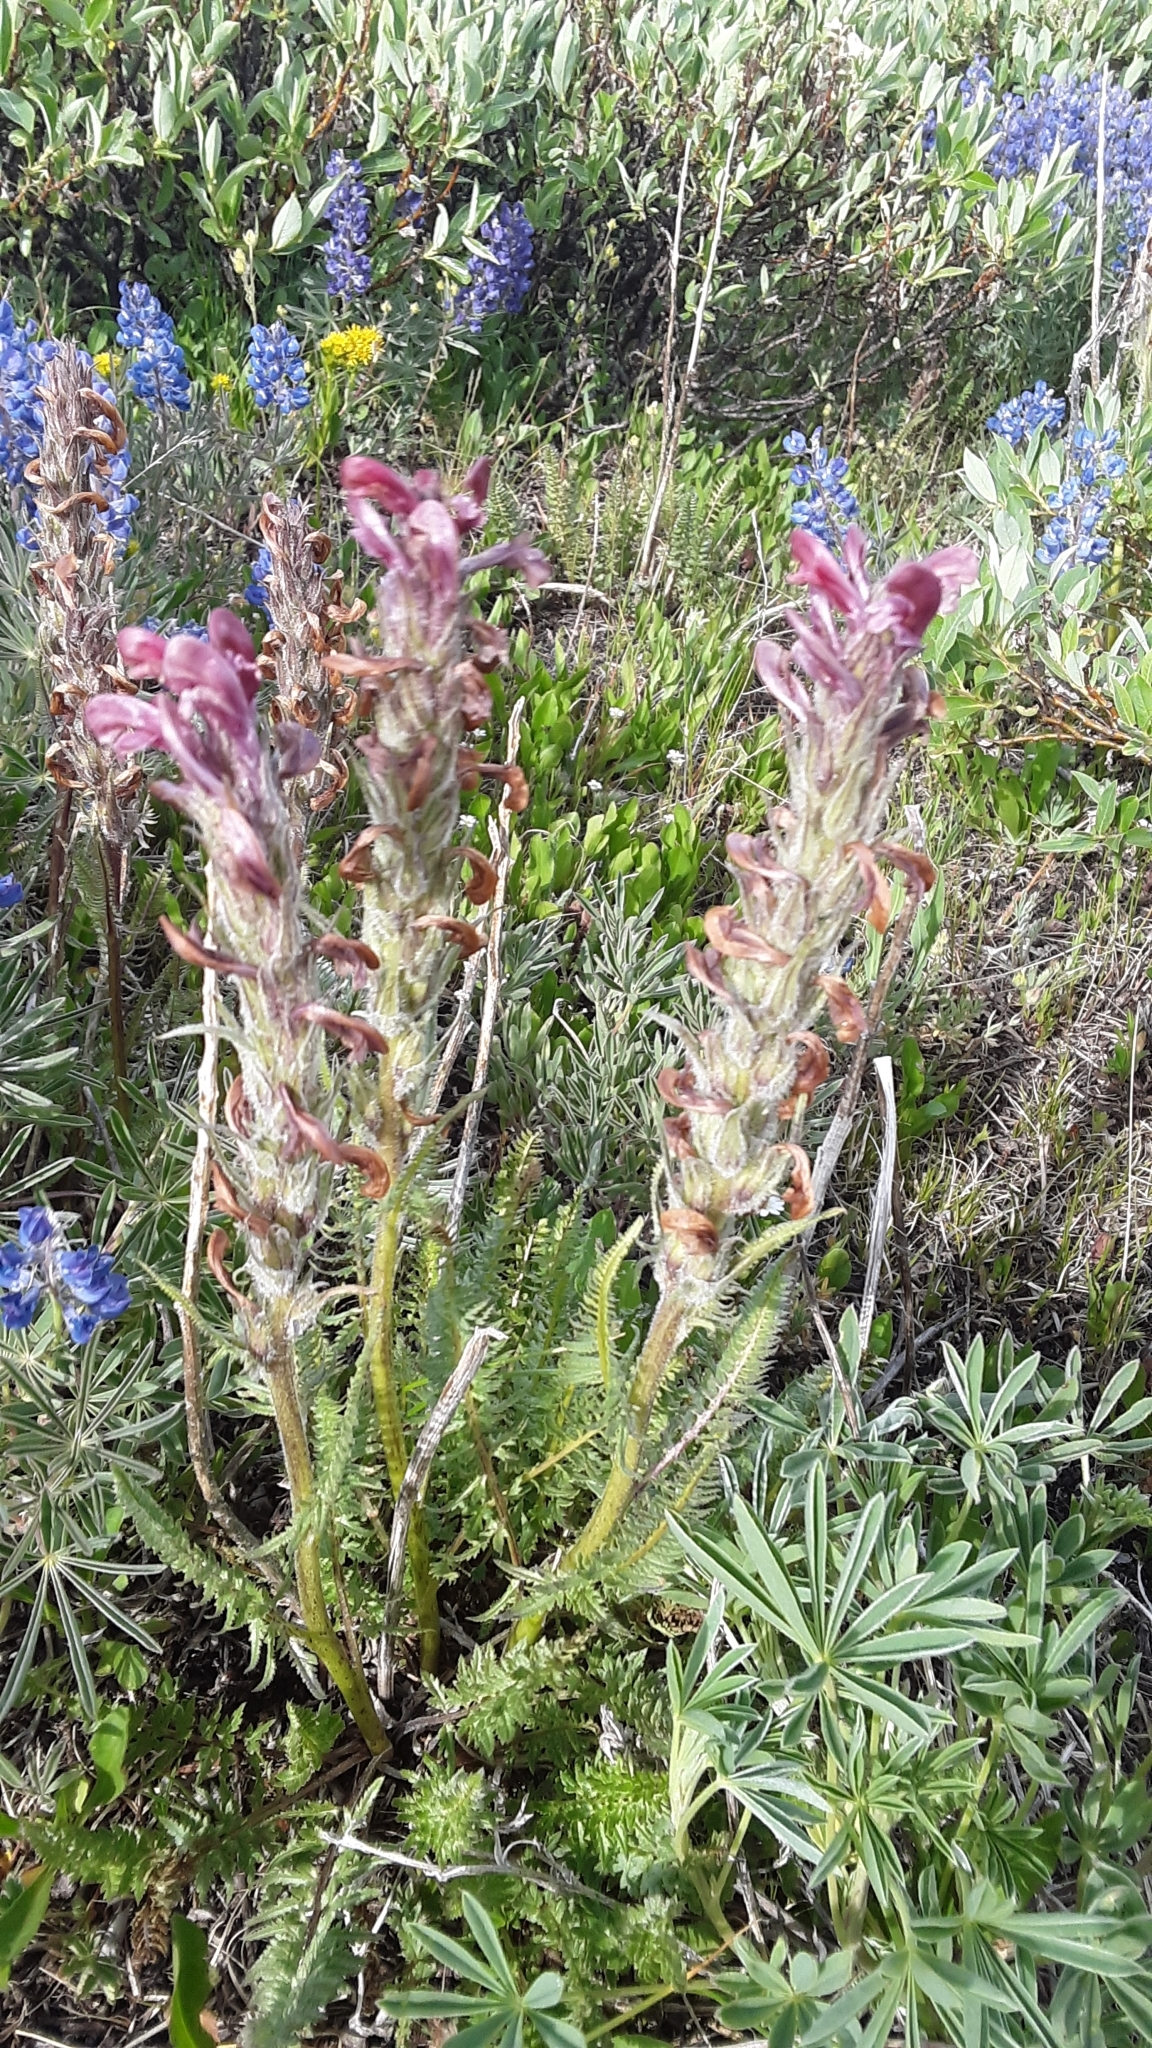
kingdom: Plantae
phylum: Tracheophyta
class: Magnoliopsida
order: Lamiales
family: Orobanchaceae
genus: Pedicularis
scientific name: Pedicularis cystopteridifolia
